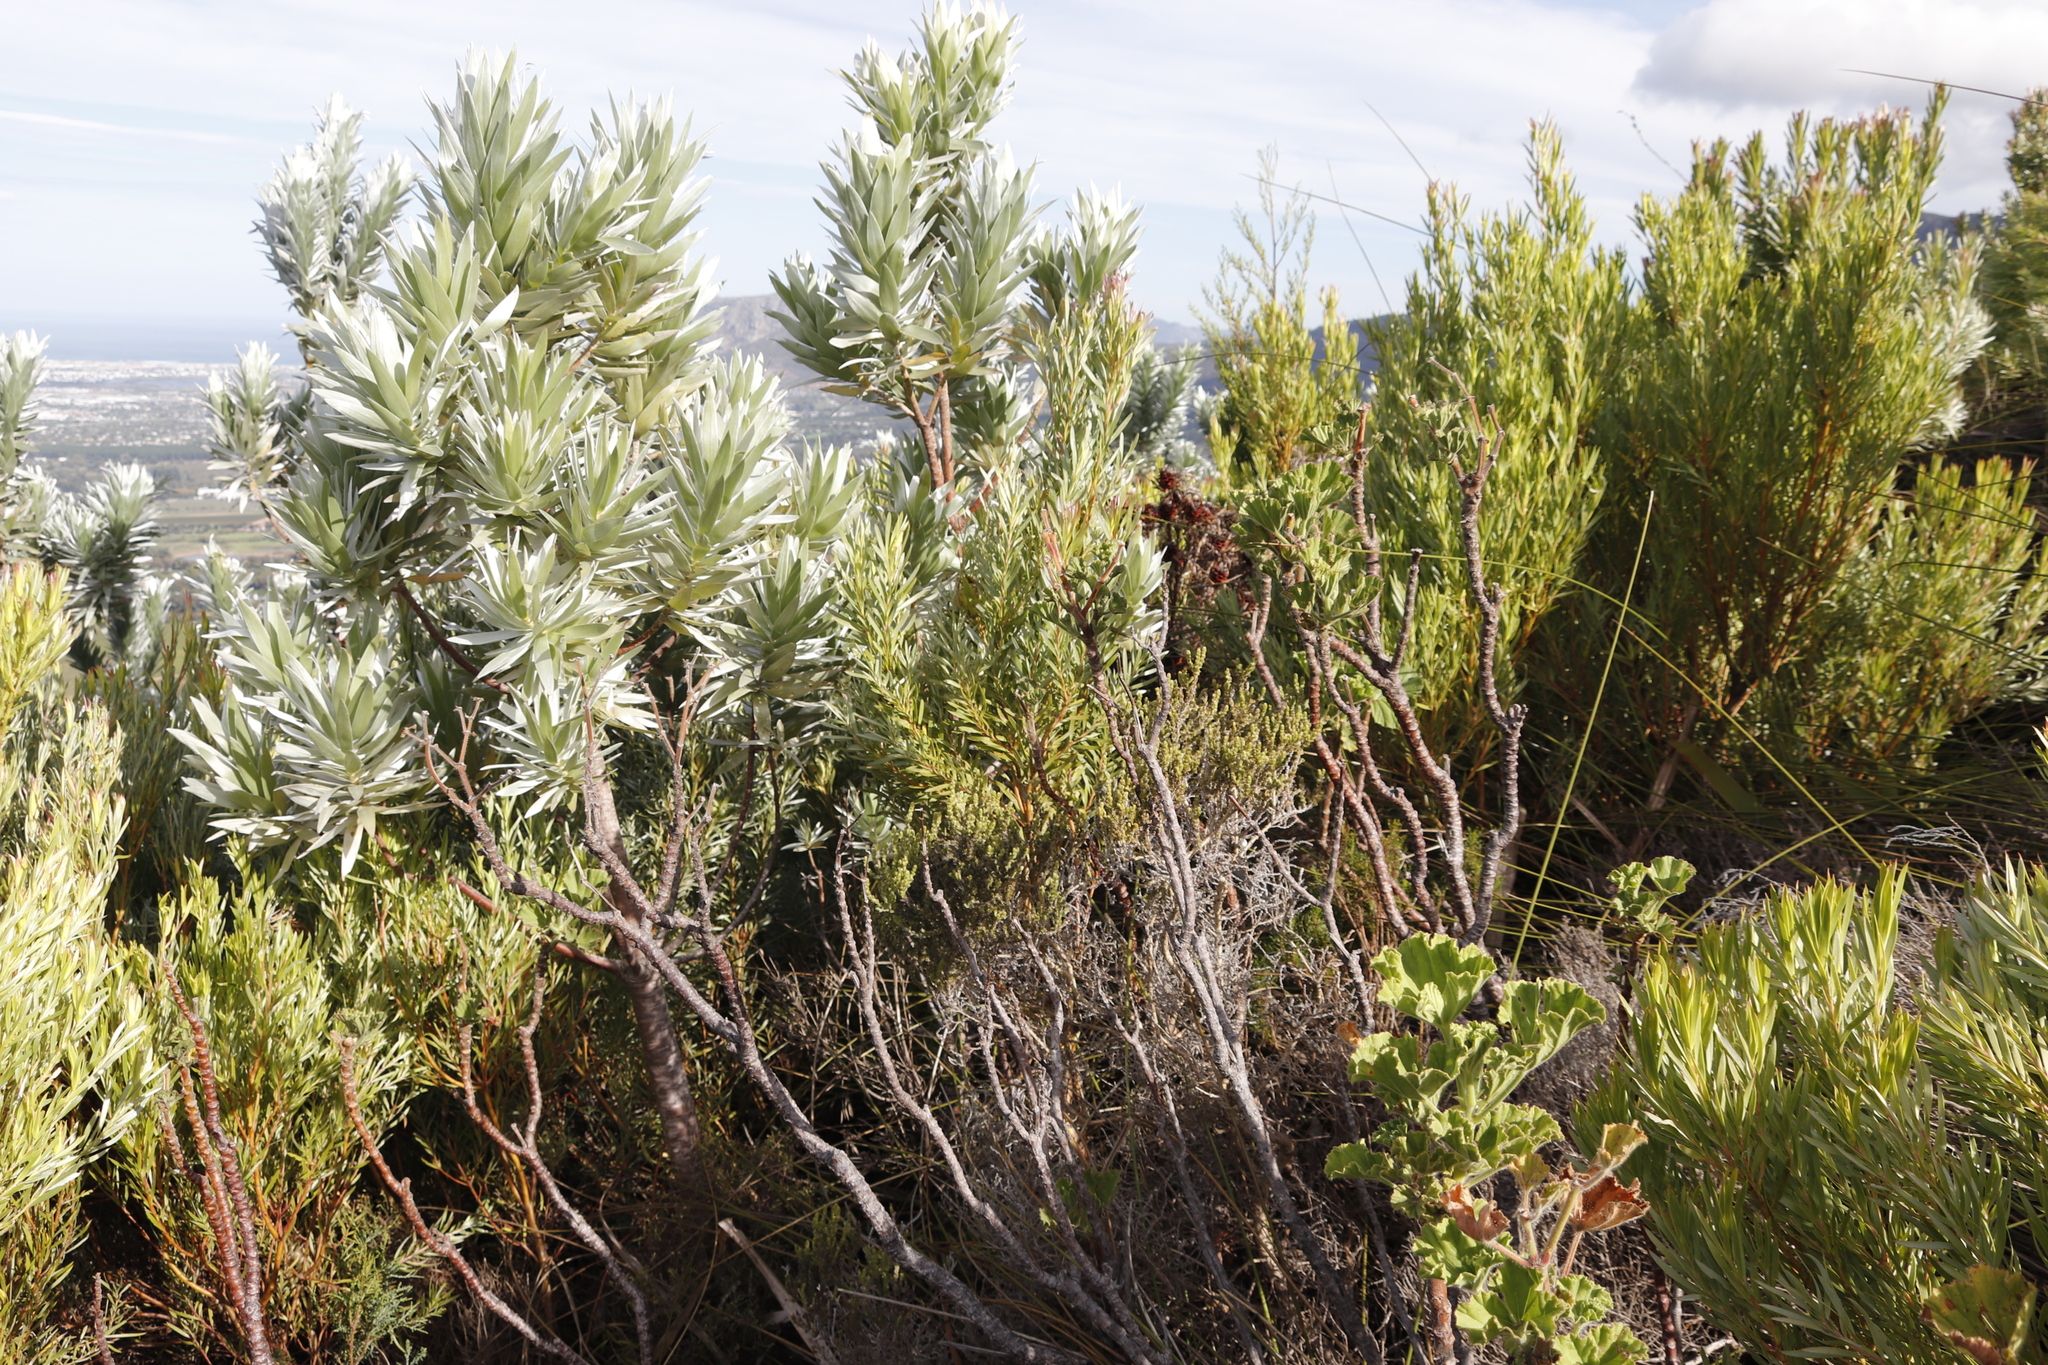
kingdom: Plantae
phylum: Tracheophyta
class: Magnoliopsida
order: Proteales
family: Proteaceae
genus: Leucadendron
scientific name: Leucadendron argenteum
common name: Cape silver tree
